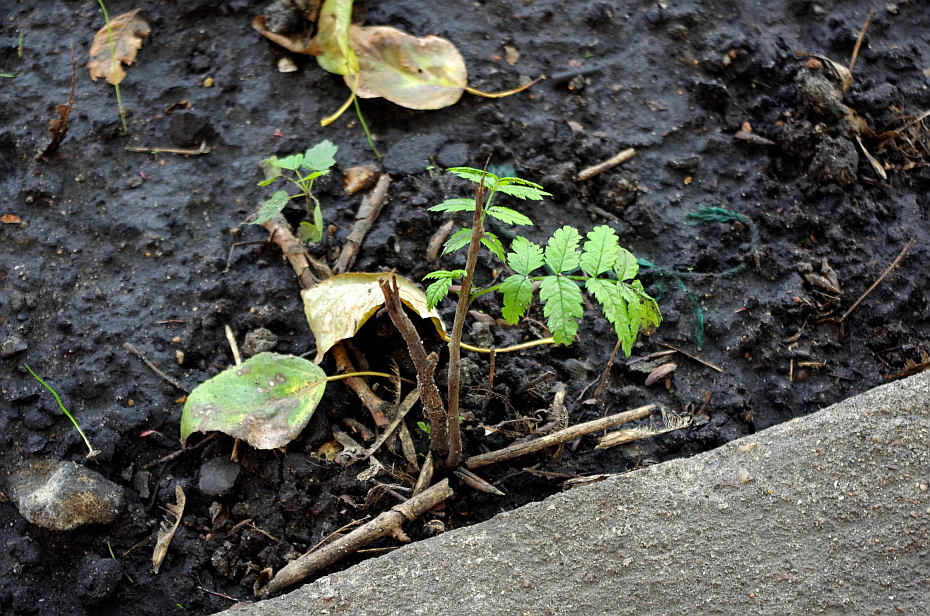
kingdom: Plantae
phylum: Tracheophyta
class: Magnoliopsida
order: Rosales
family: Rosaceae
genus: Sorbus
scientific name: Sorbus aucuparia
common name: Rowan
